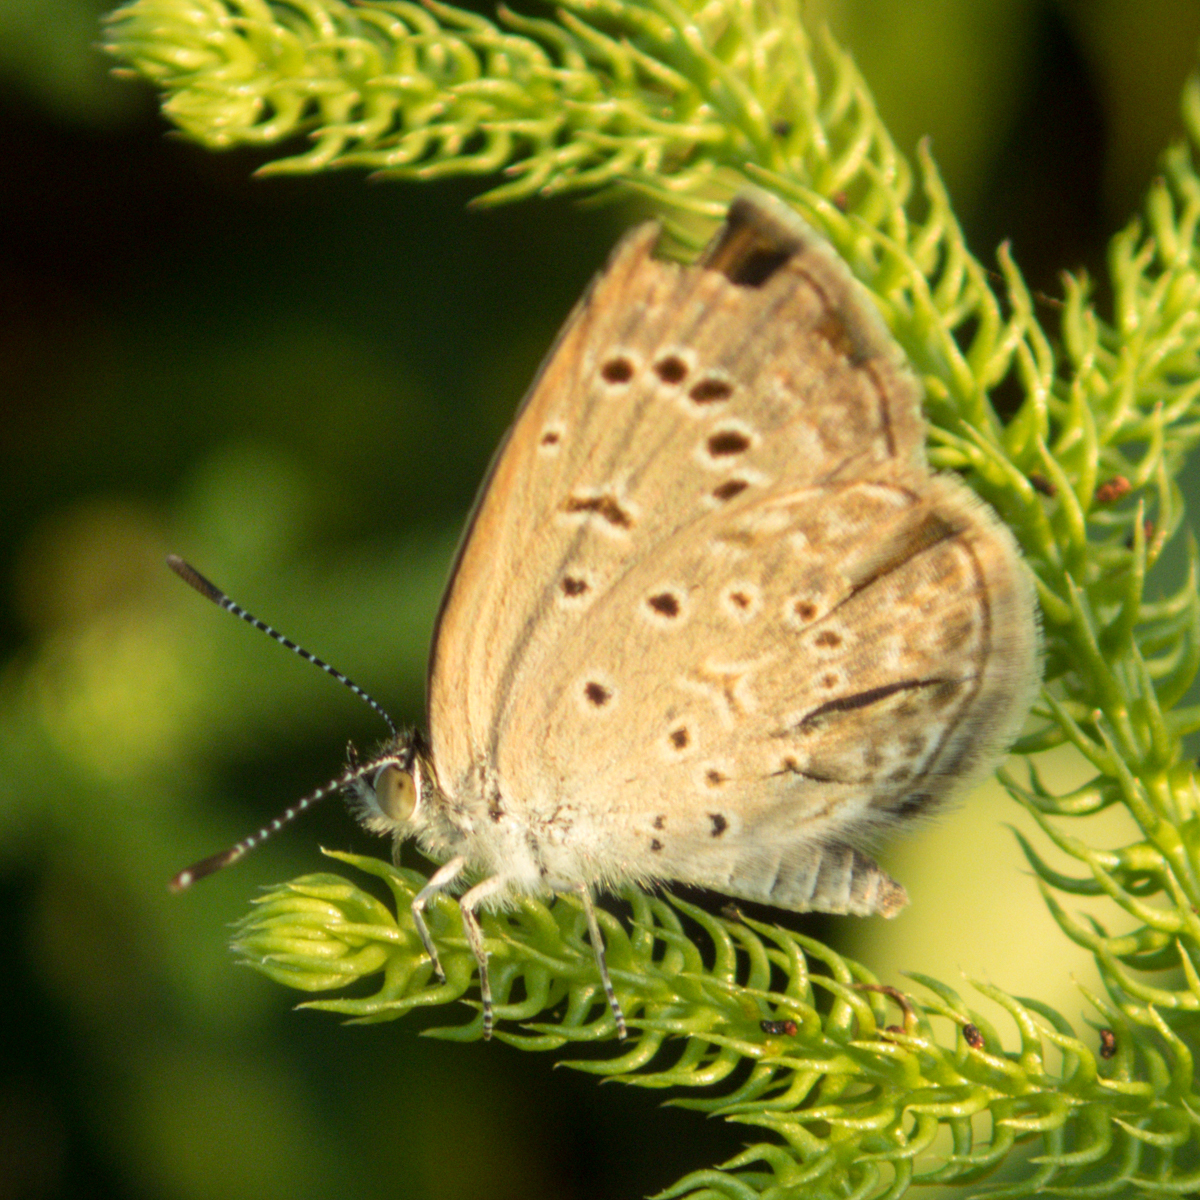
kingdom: Animalia
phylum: Arthropoda
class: Insecta
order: Lepidoptera
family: Lycaenidae
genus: Zizeeria
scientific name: Zizeeria karsandra
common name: Dark grass blue
